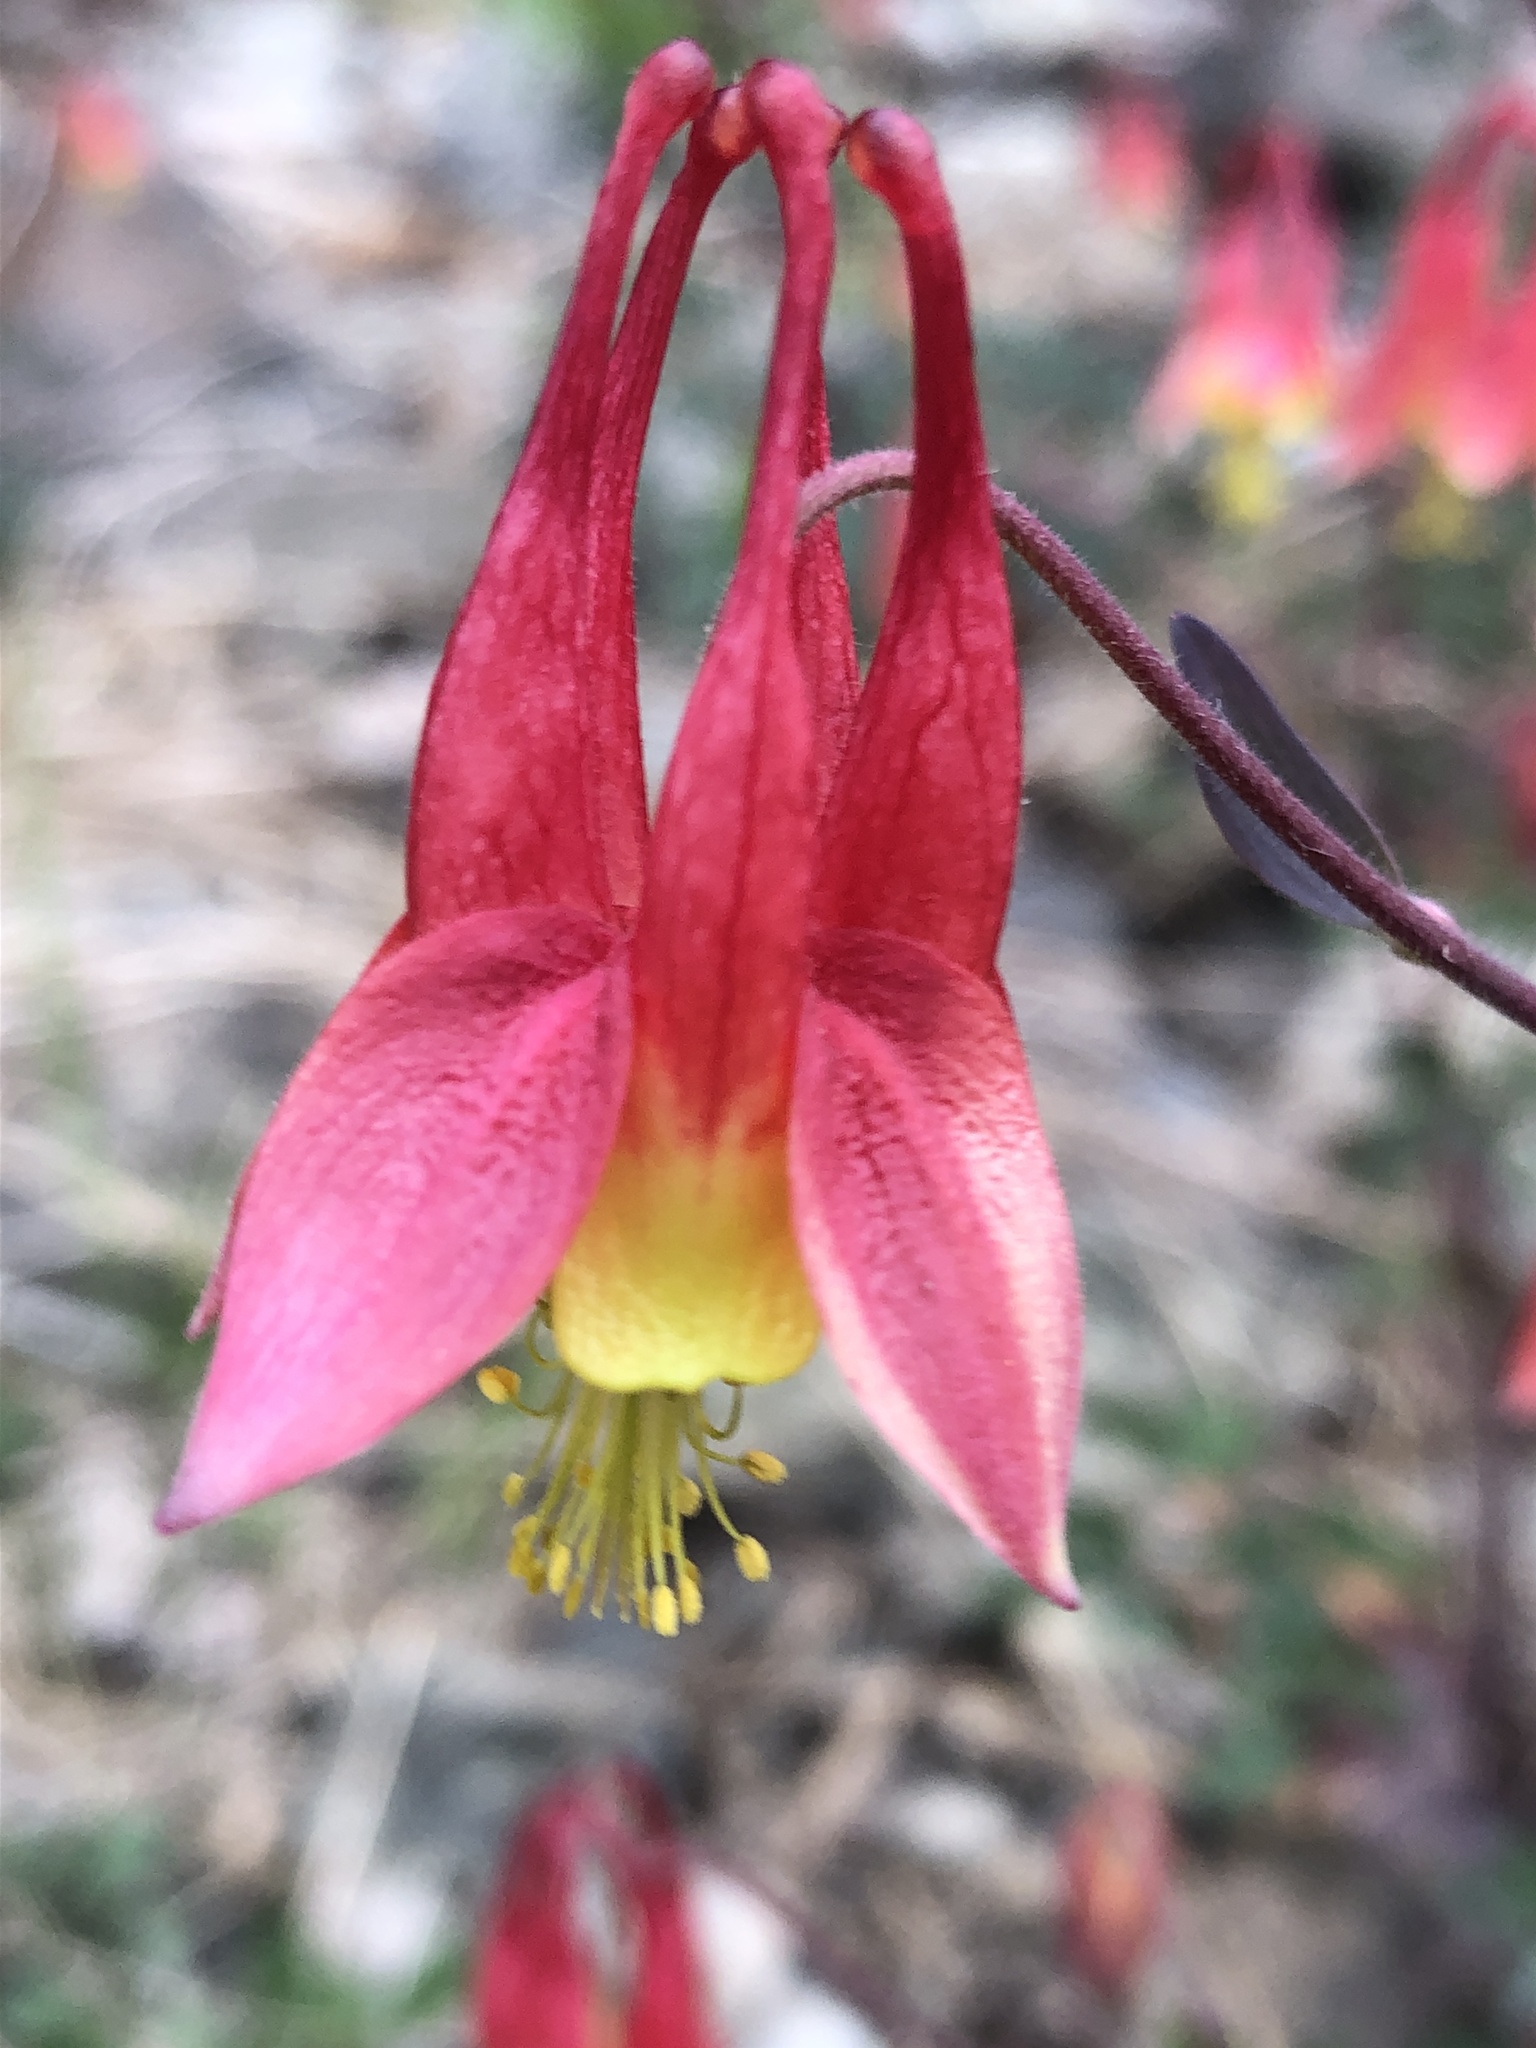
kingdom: Plantae
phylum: Tracheophyta
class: Magnoliopsida
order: Ranunculales
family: Ranunculaceae
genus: Aquilegia
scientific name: Aquilegia canadensis
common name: American columbine
